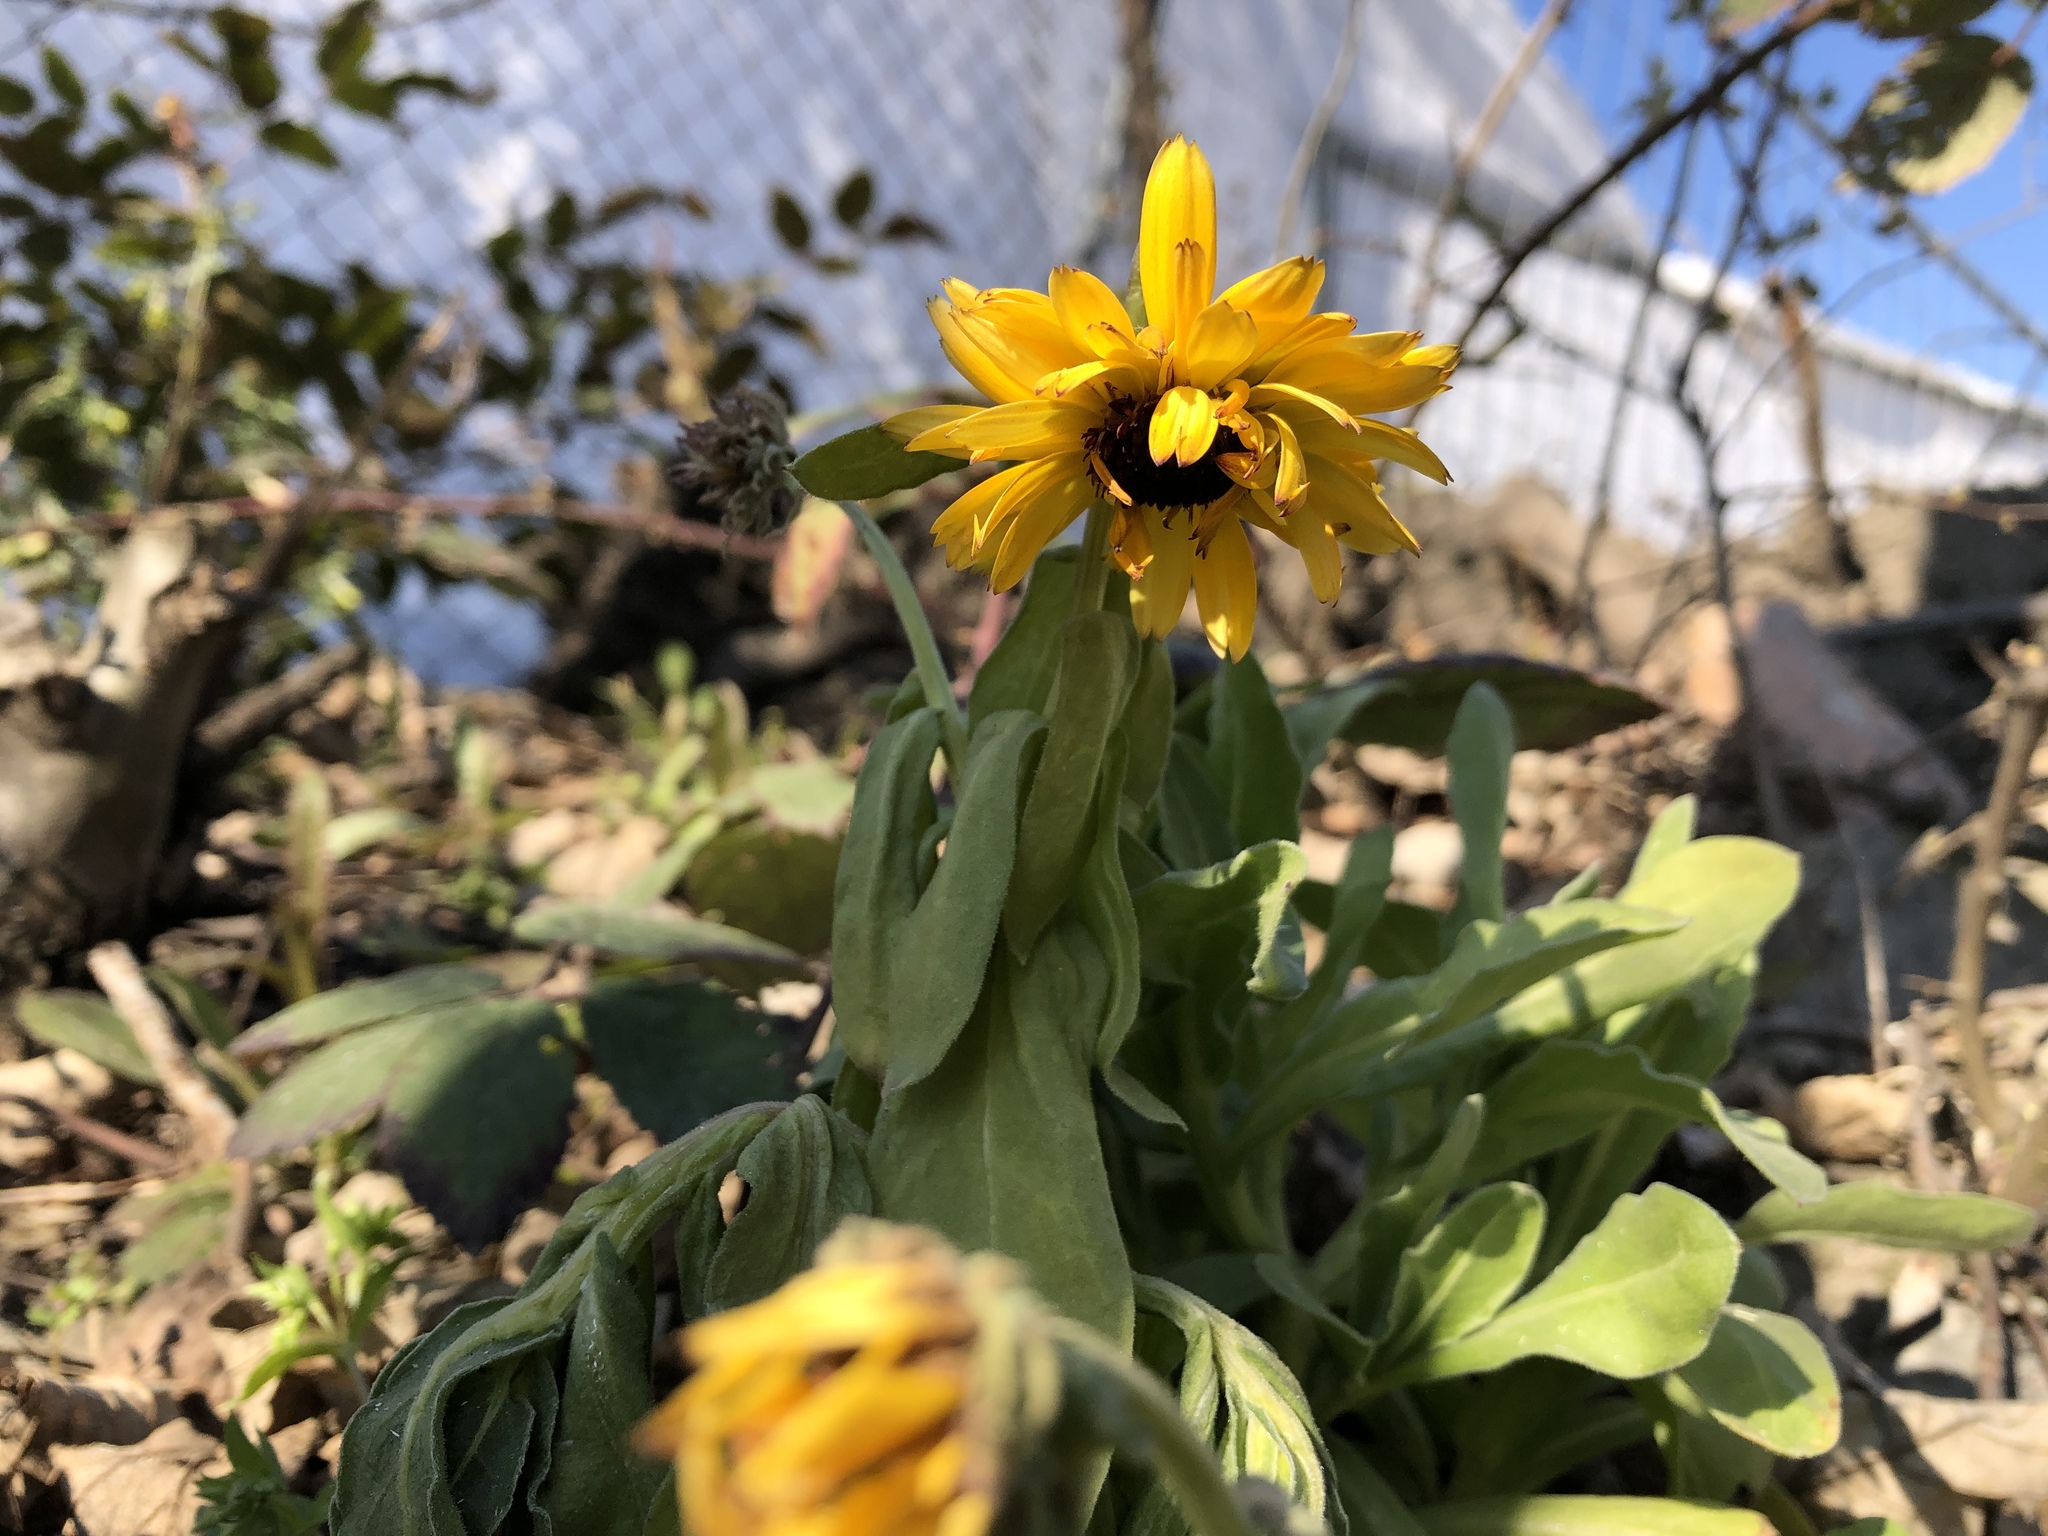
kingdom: Plantae
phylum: Tracheophyta
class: Magnoliopsida
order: Asterales
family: Asteraceae
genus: Calendula
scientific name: Calendula officinalis
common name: Pot marigold
